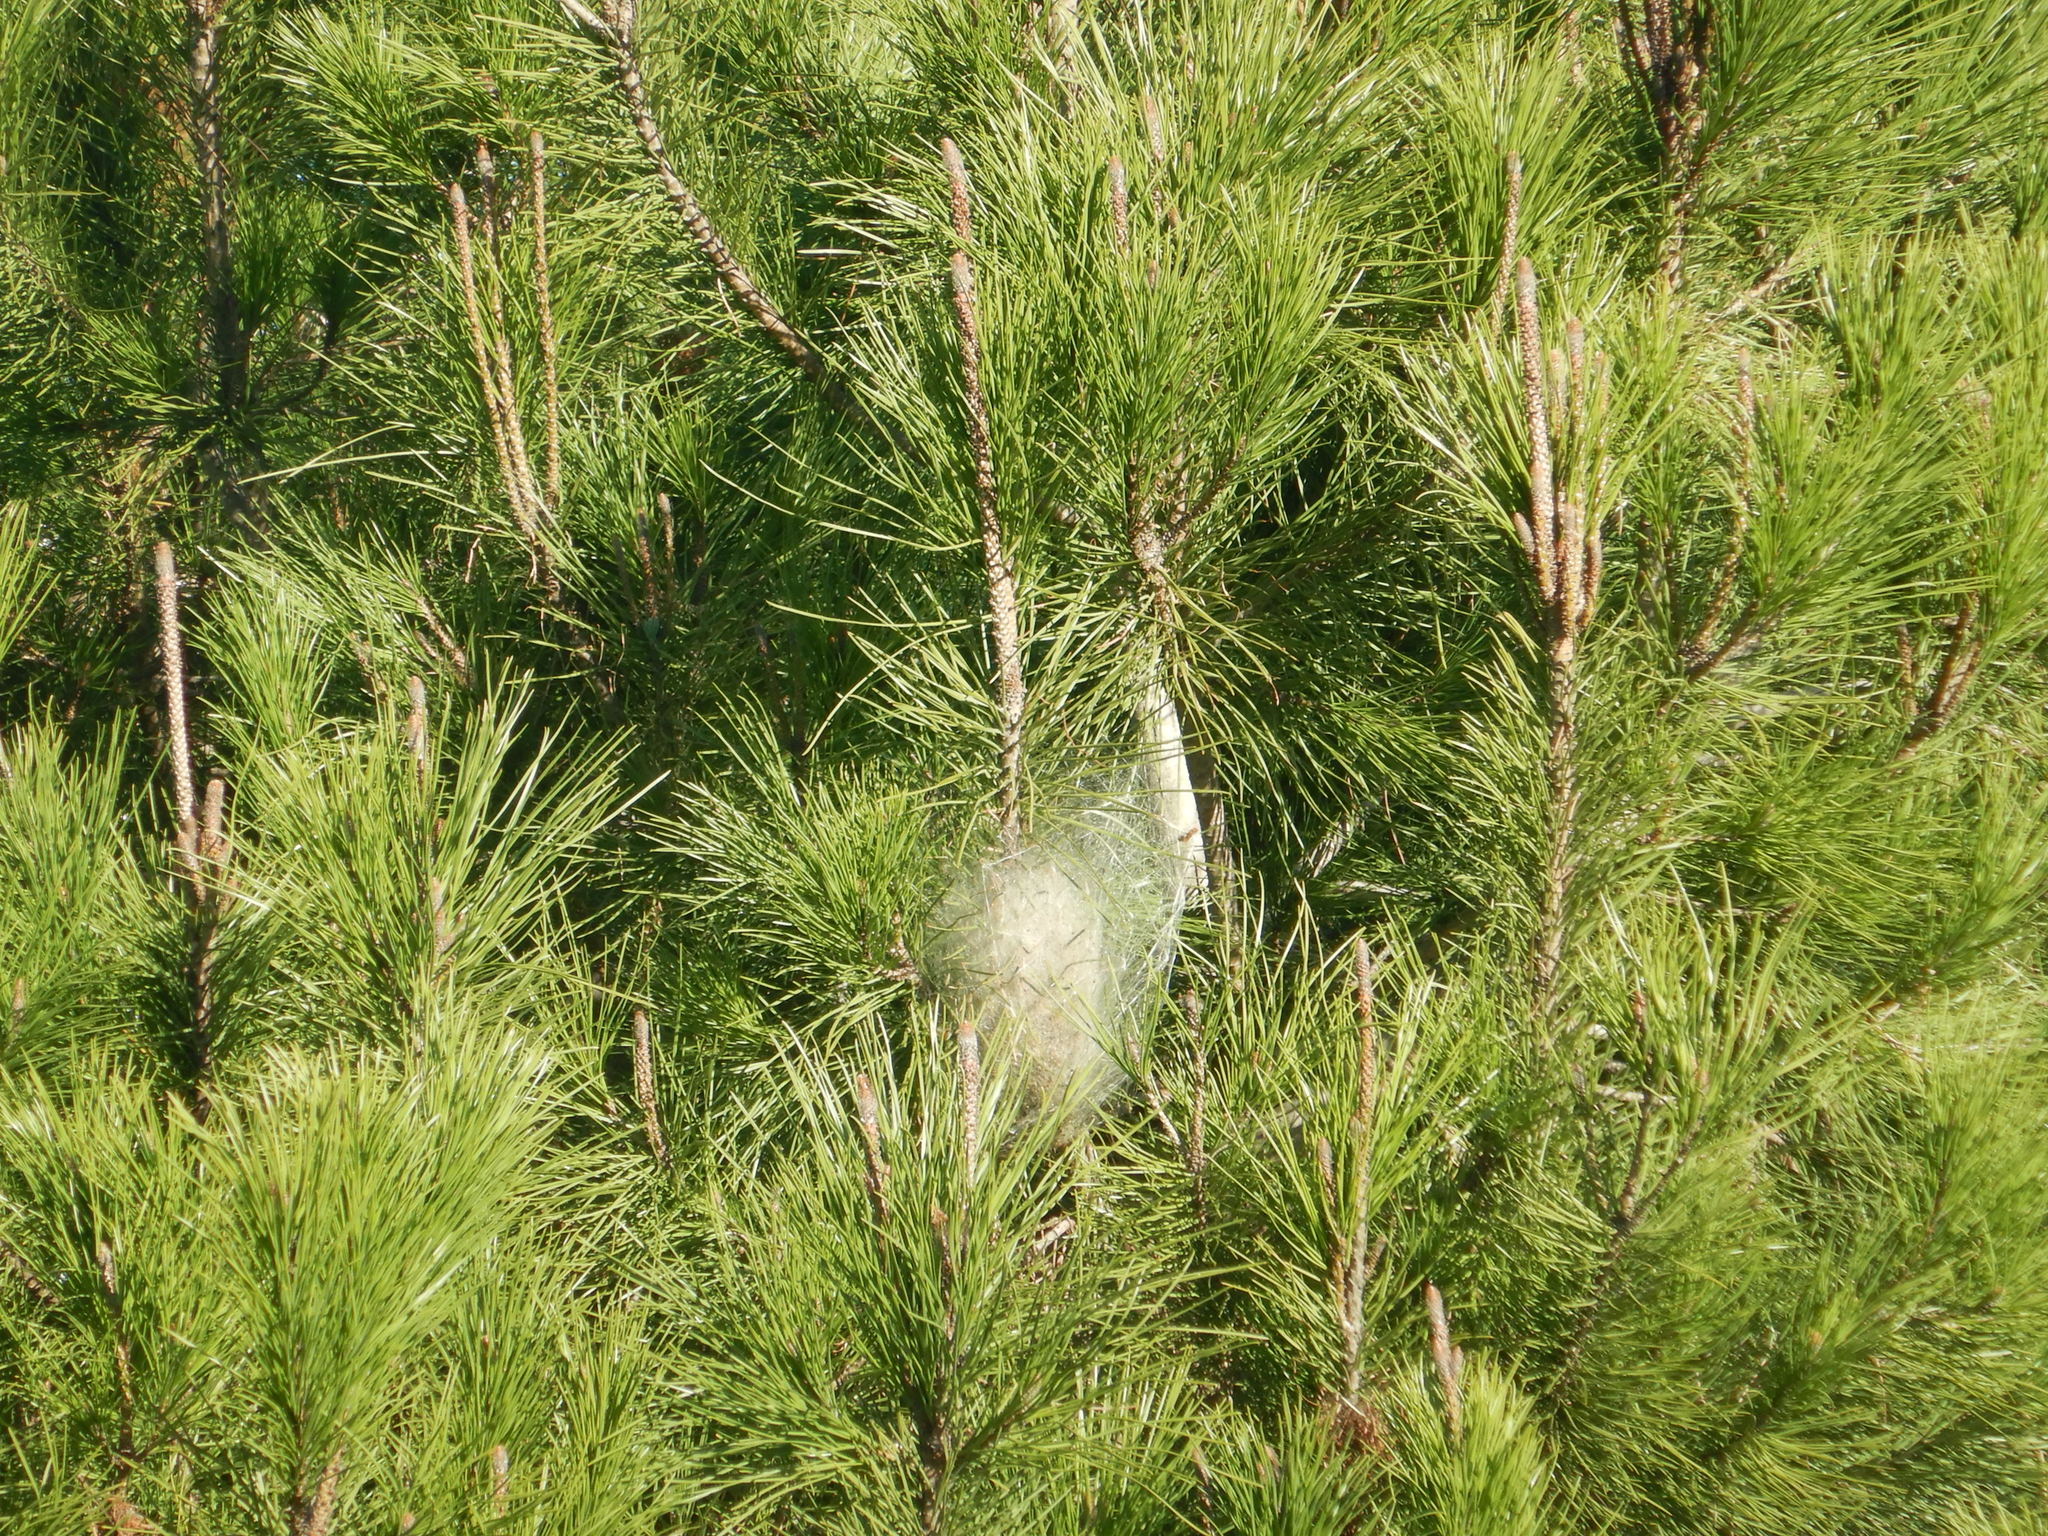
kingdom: Animalia
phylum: Arthropoda
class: Insecta
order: Lepidoptera
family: Notodontidae
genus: Thaumetopoea
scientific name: Thaumetopoea pityocampa
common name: Pine processionary
